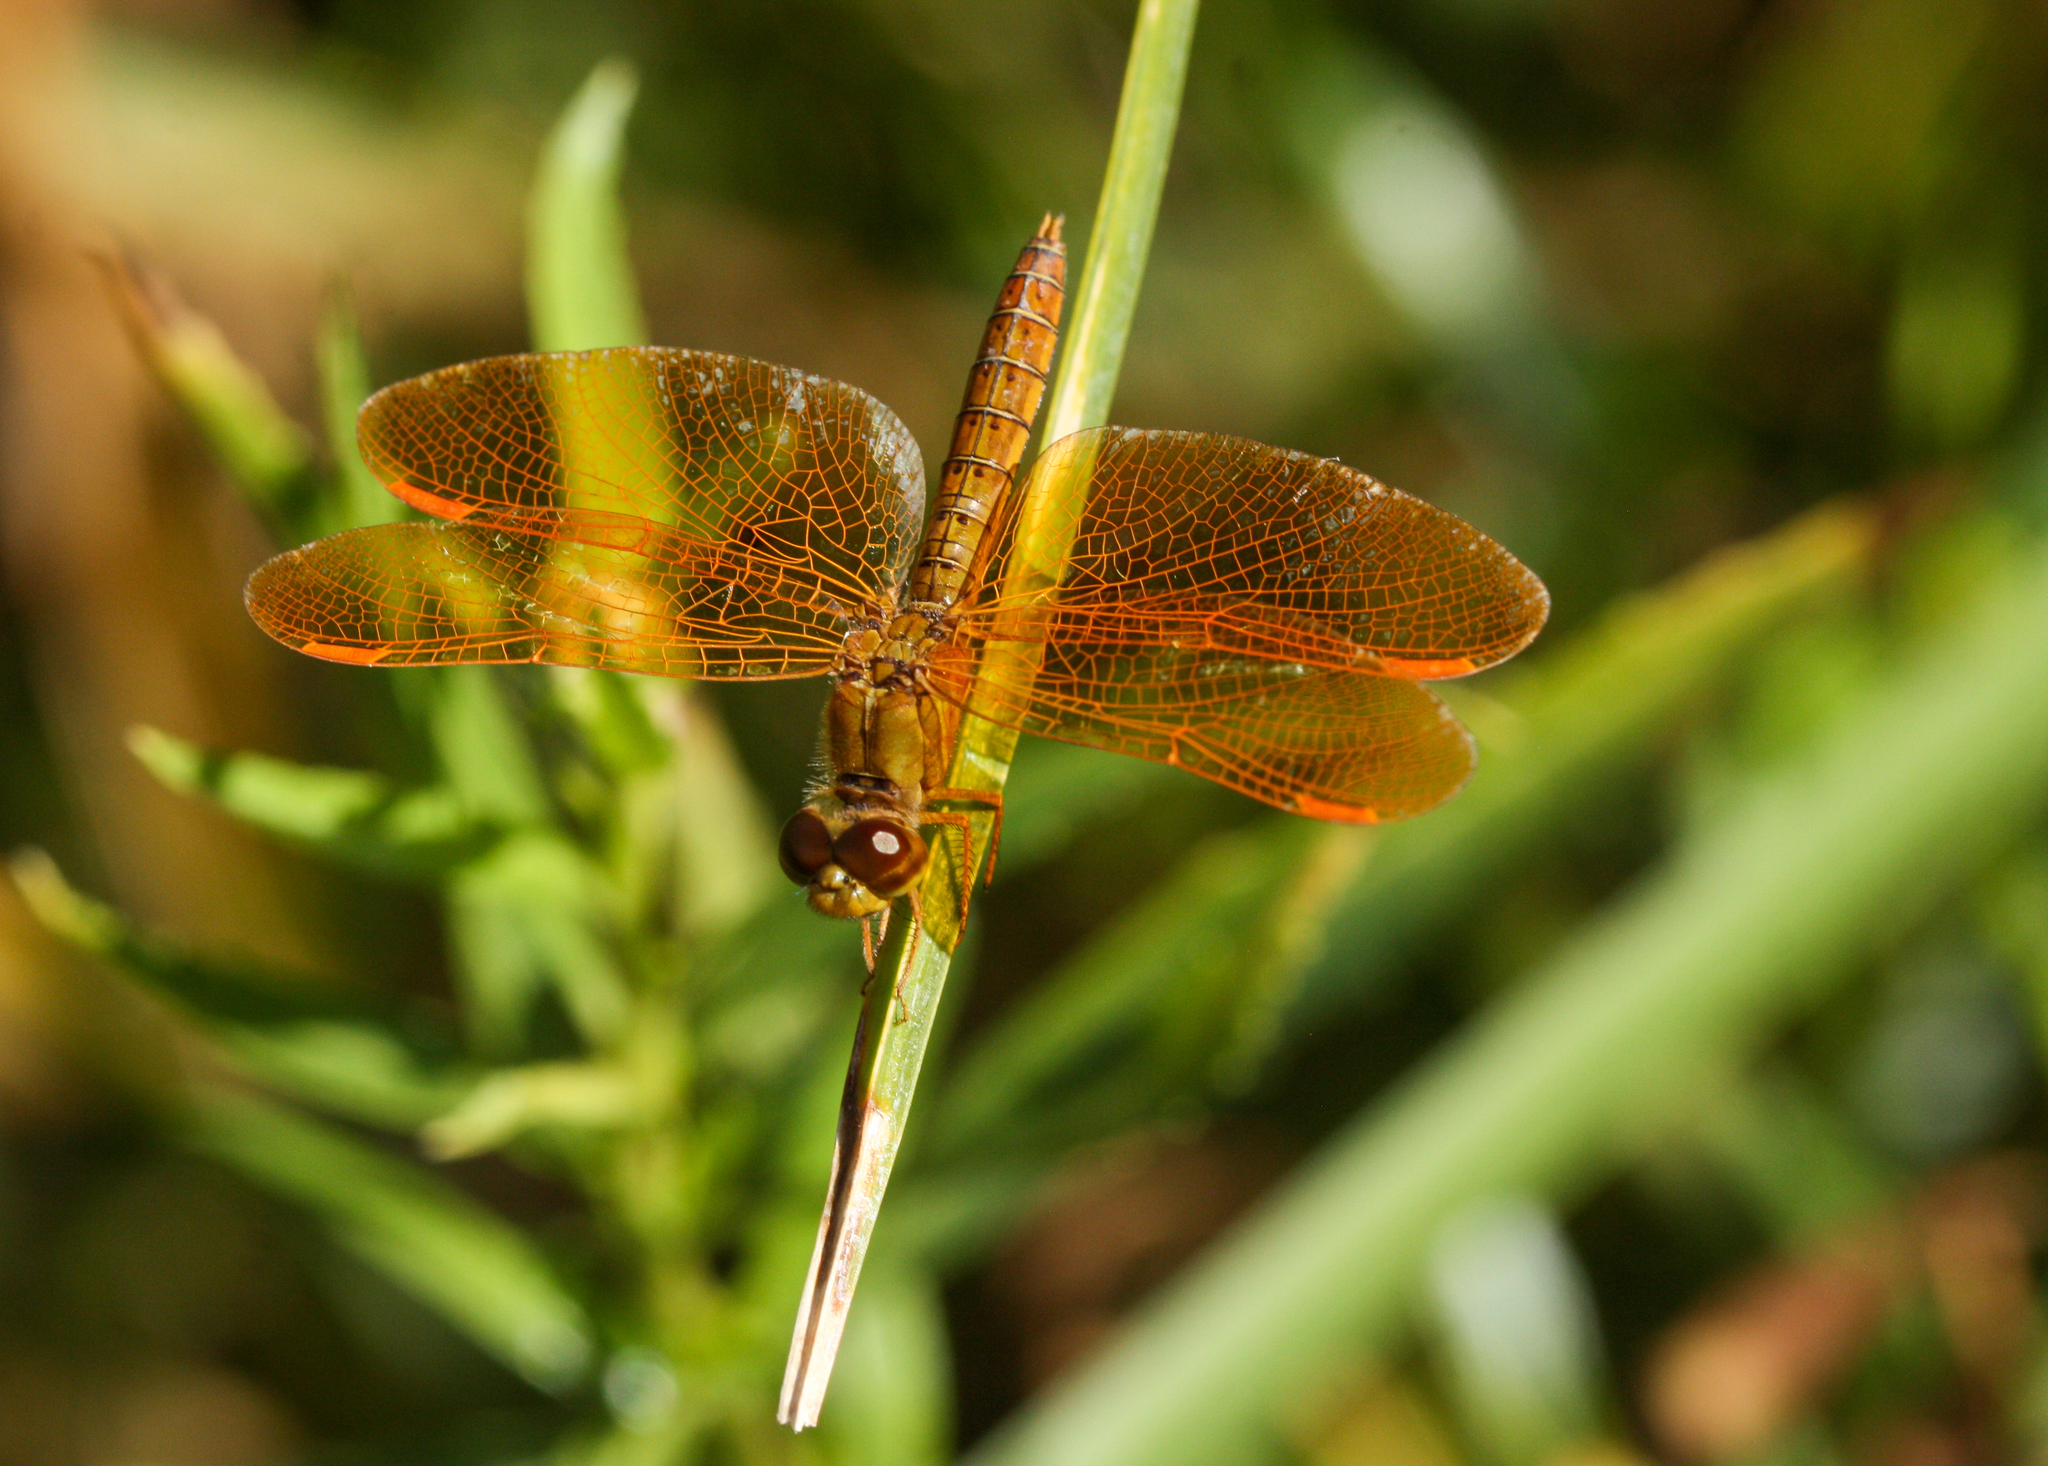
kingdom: Animalia
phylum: Arthropoda
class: Insecta
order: Odonata
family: Libellulidae
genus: Perithemis
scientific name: Perithemis intensa
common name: Mexican amberwing
